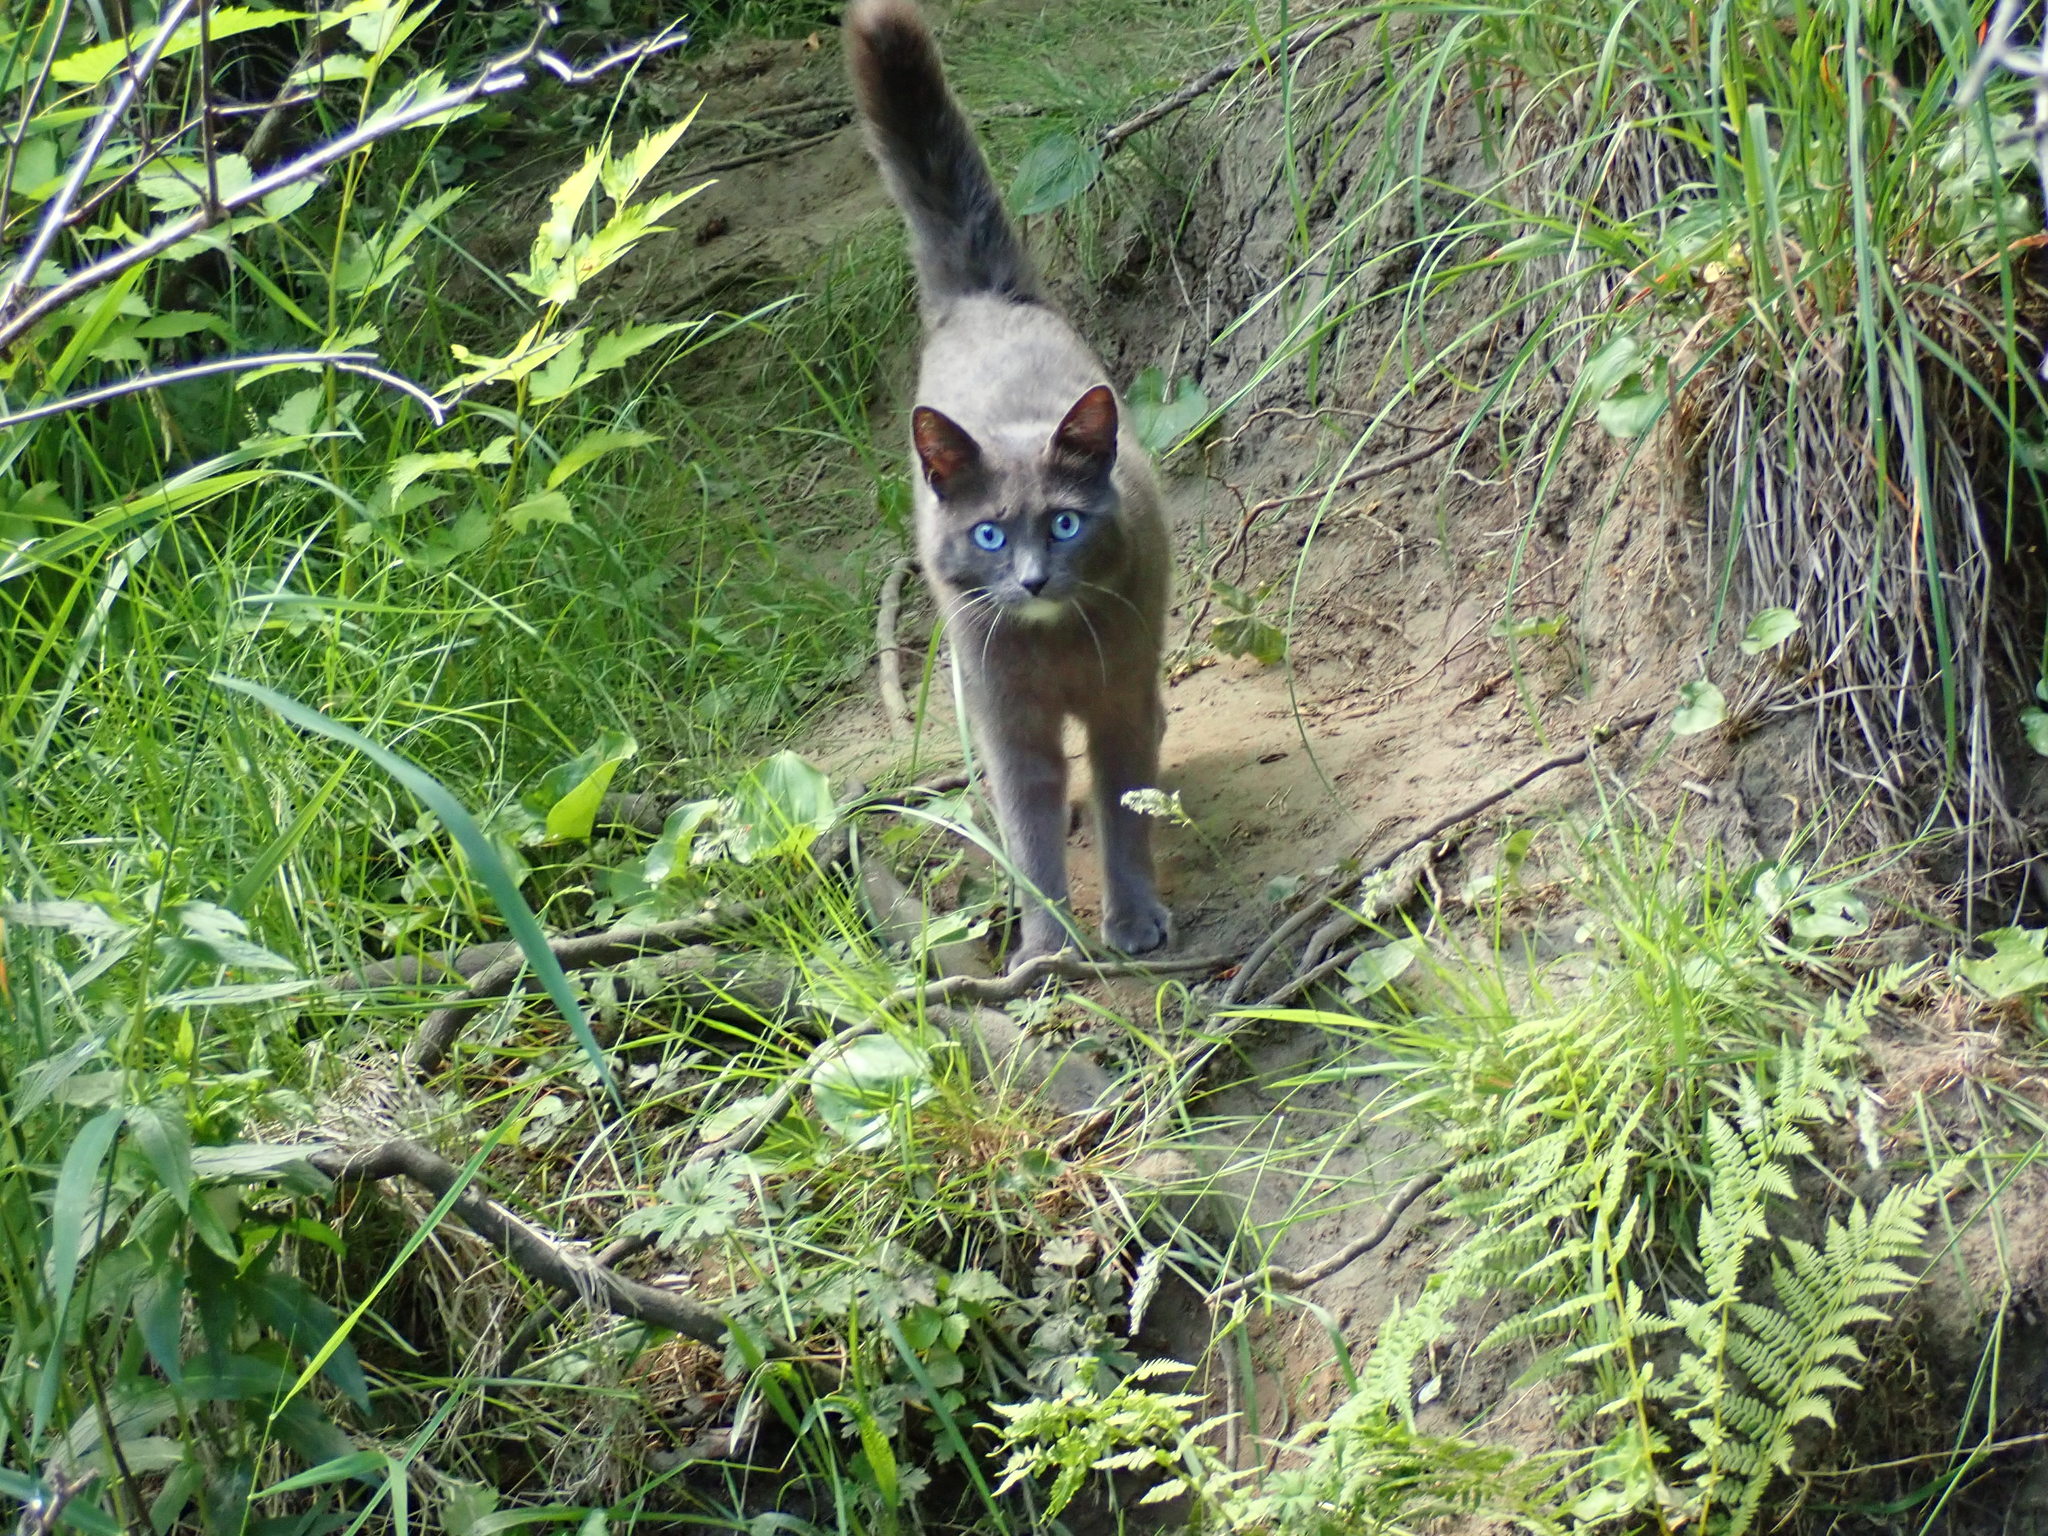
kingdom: Animalia
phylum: Chordata
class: Mammalia
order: Carnivora
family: Felidae
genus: Felis
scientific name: Felis catus
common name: Domestic cat
